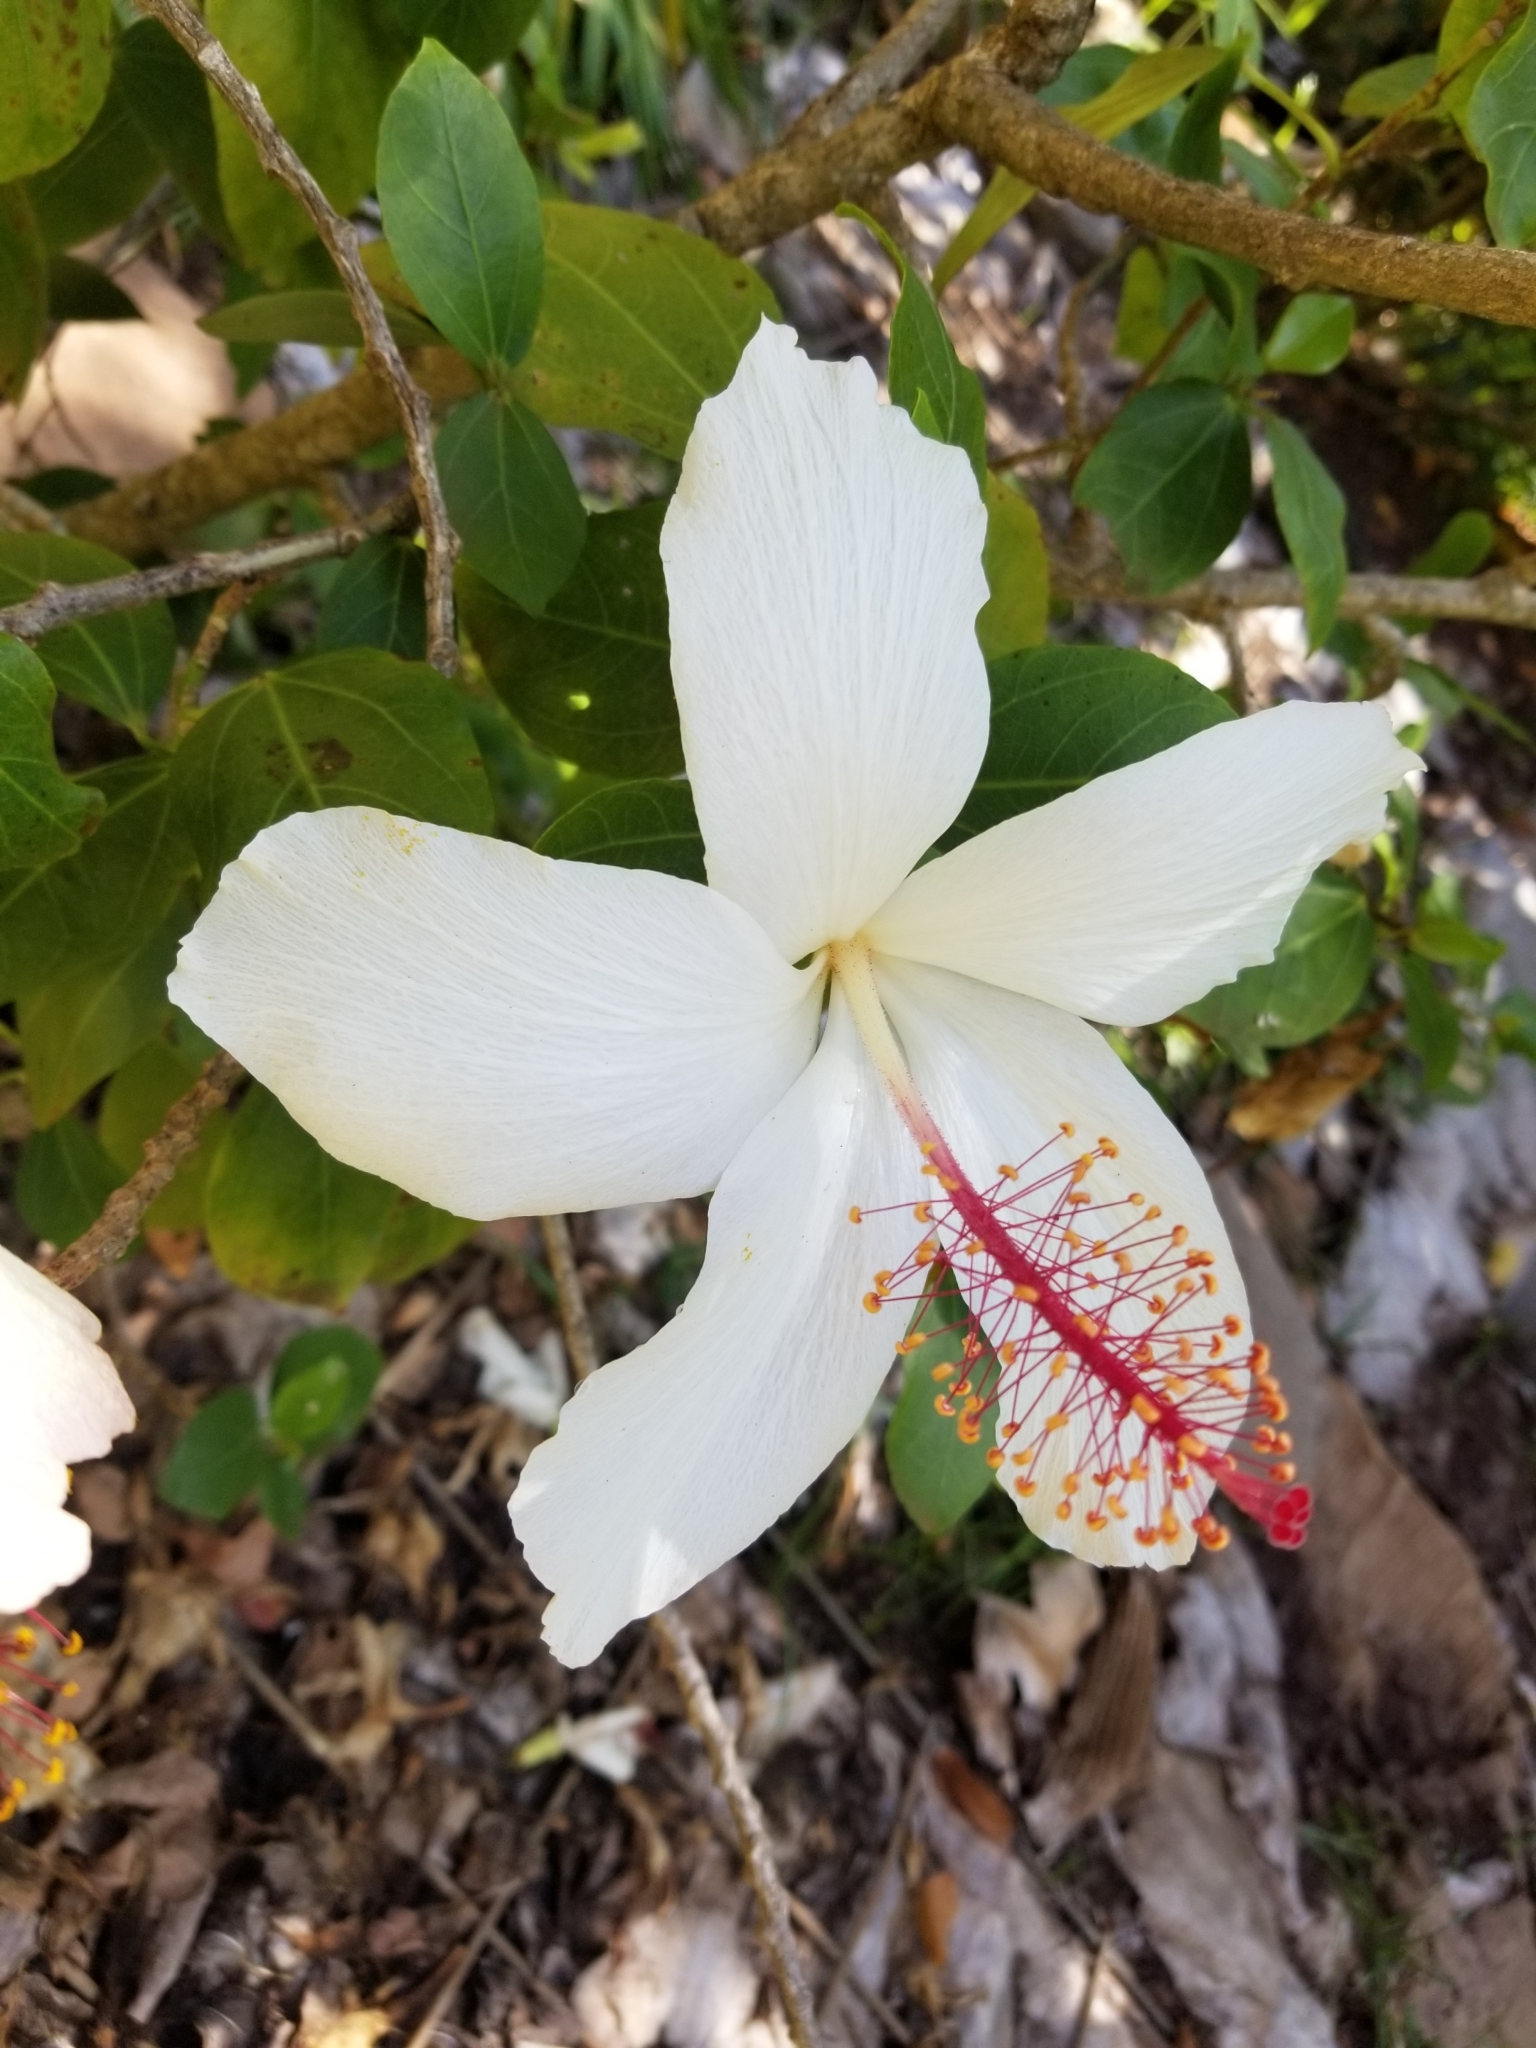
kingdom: Plantae
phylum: Tracheophyta
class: Magnoliopsida
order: Malvales
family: Malvaceae
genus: Hibiscus
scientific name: Hibiscus arnottianus
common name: White molokai hibiscus
